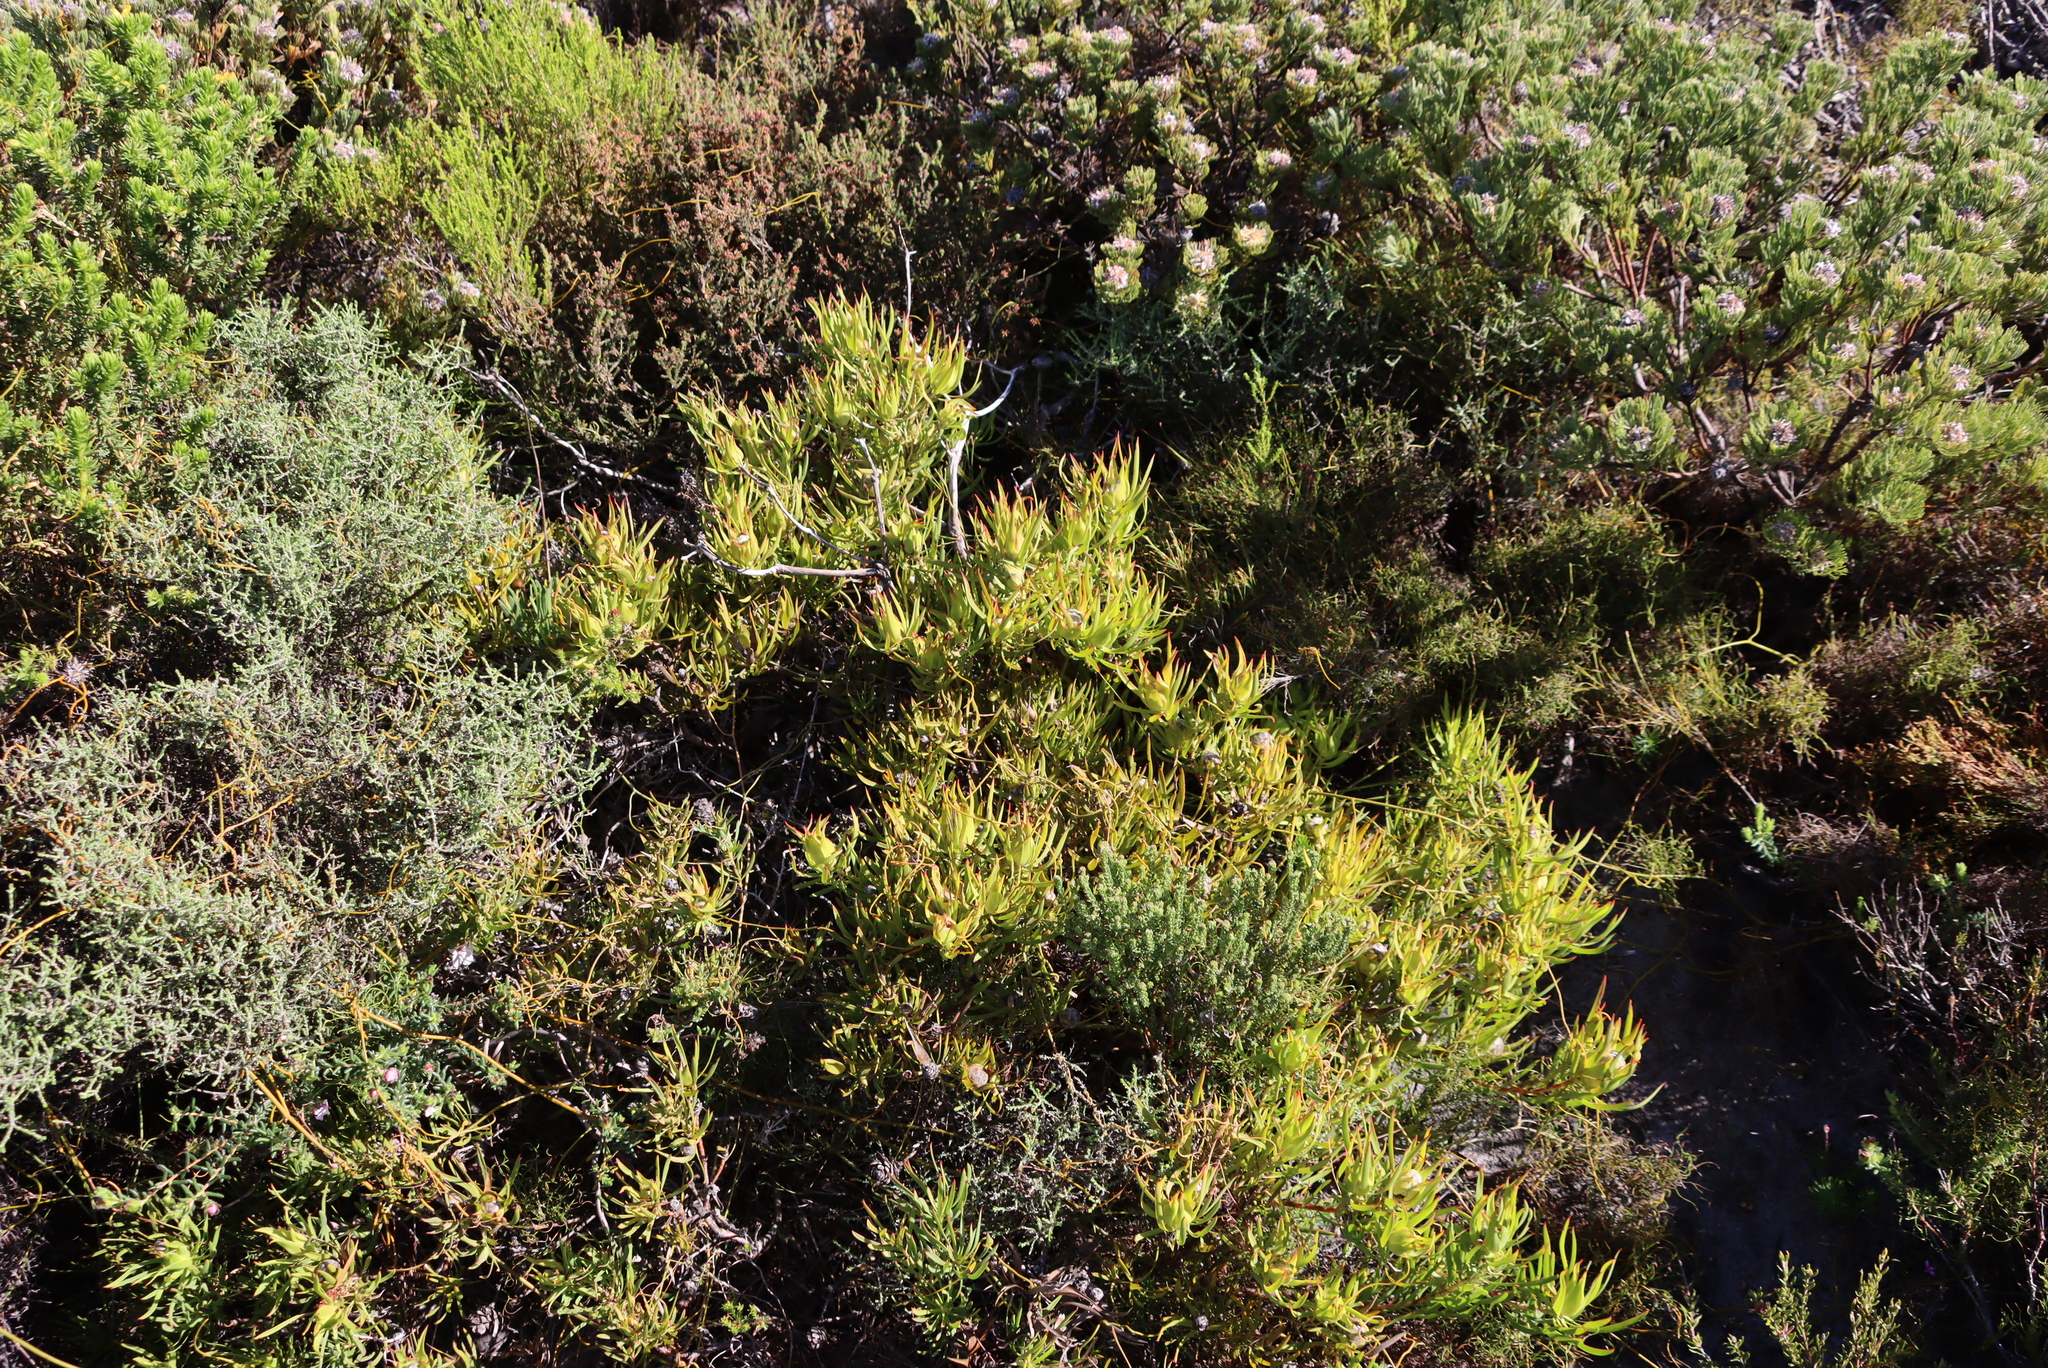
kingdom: Plantae
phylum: Tracheophyta
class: Magnoliopsida
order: Proteales
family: Proteaceae
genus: Leucadendron
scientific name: Leucadendron salignum
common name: Common sunshine conebush
